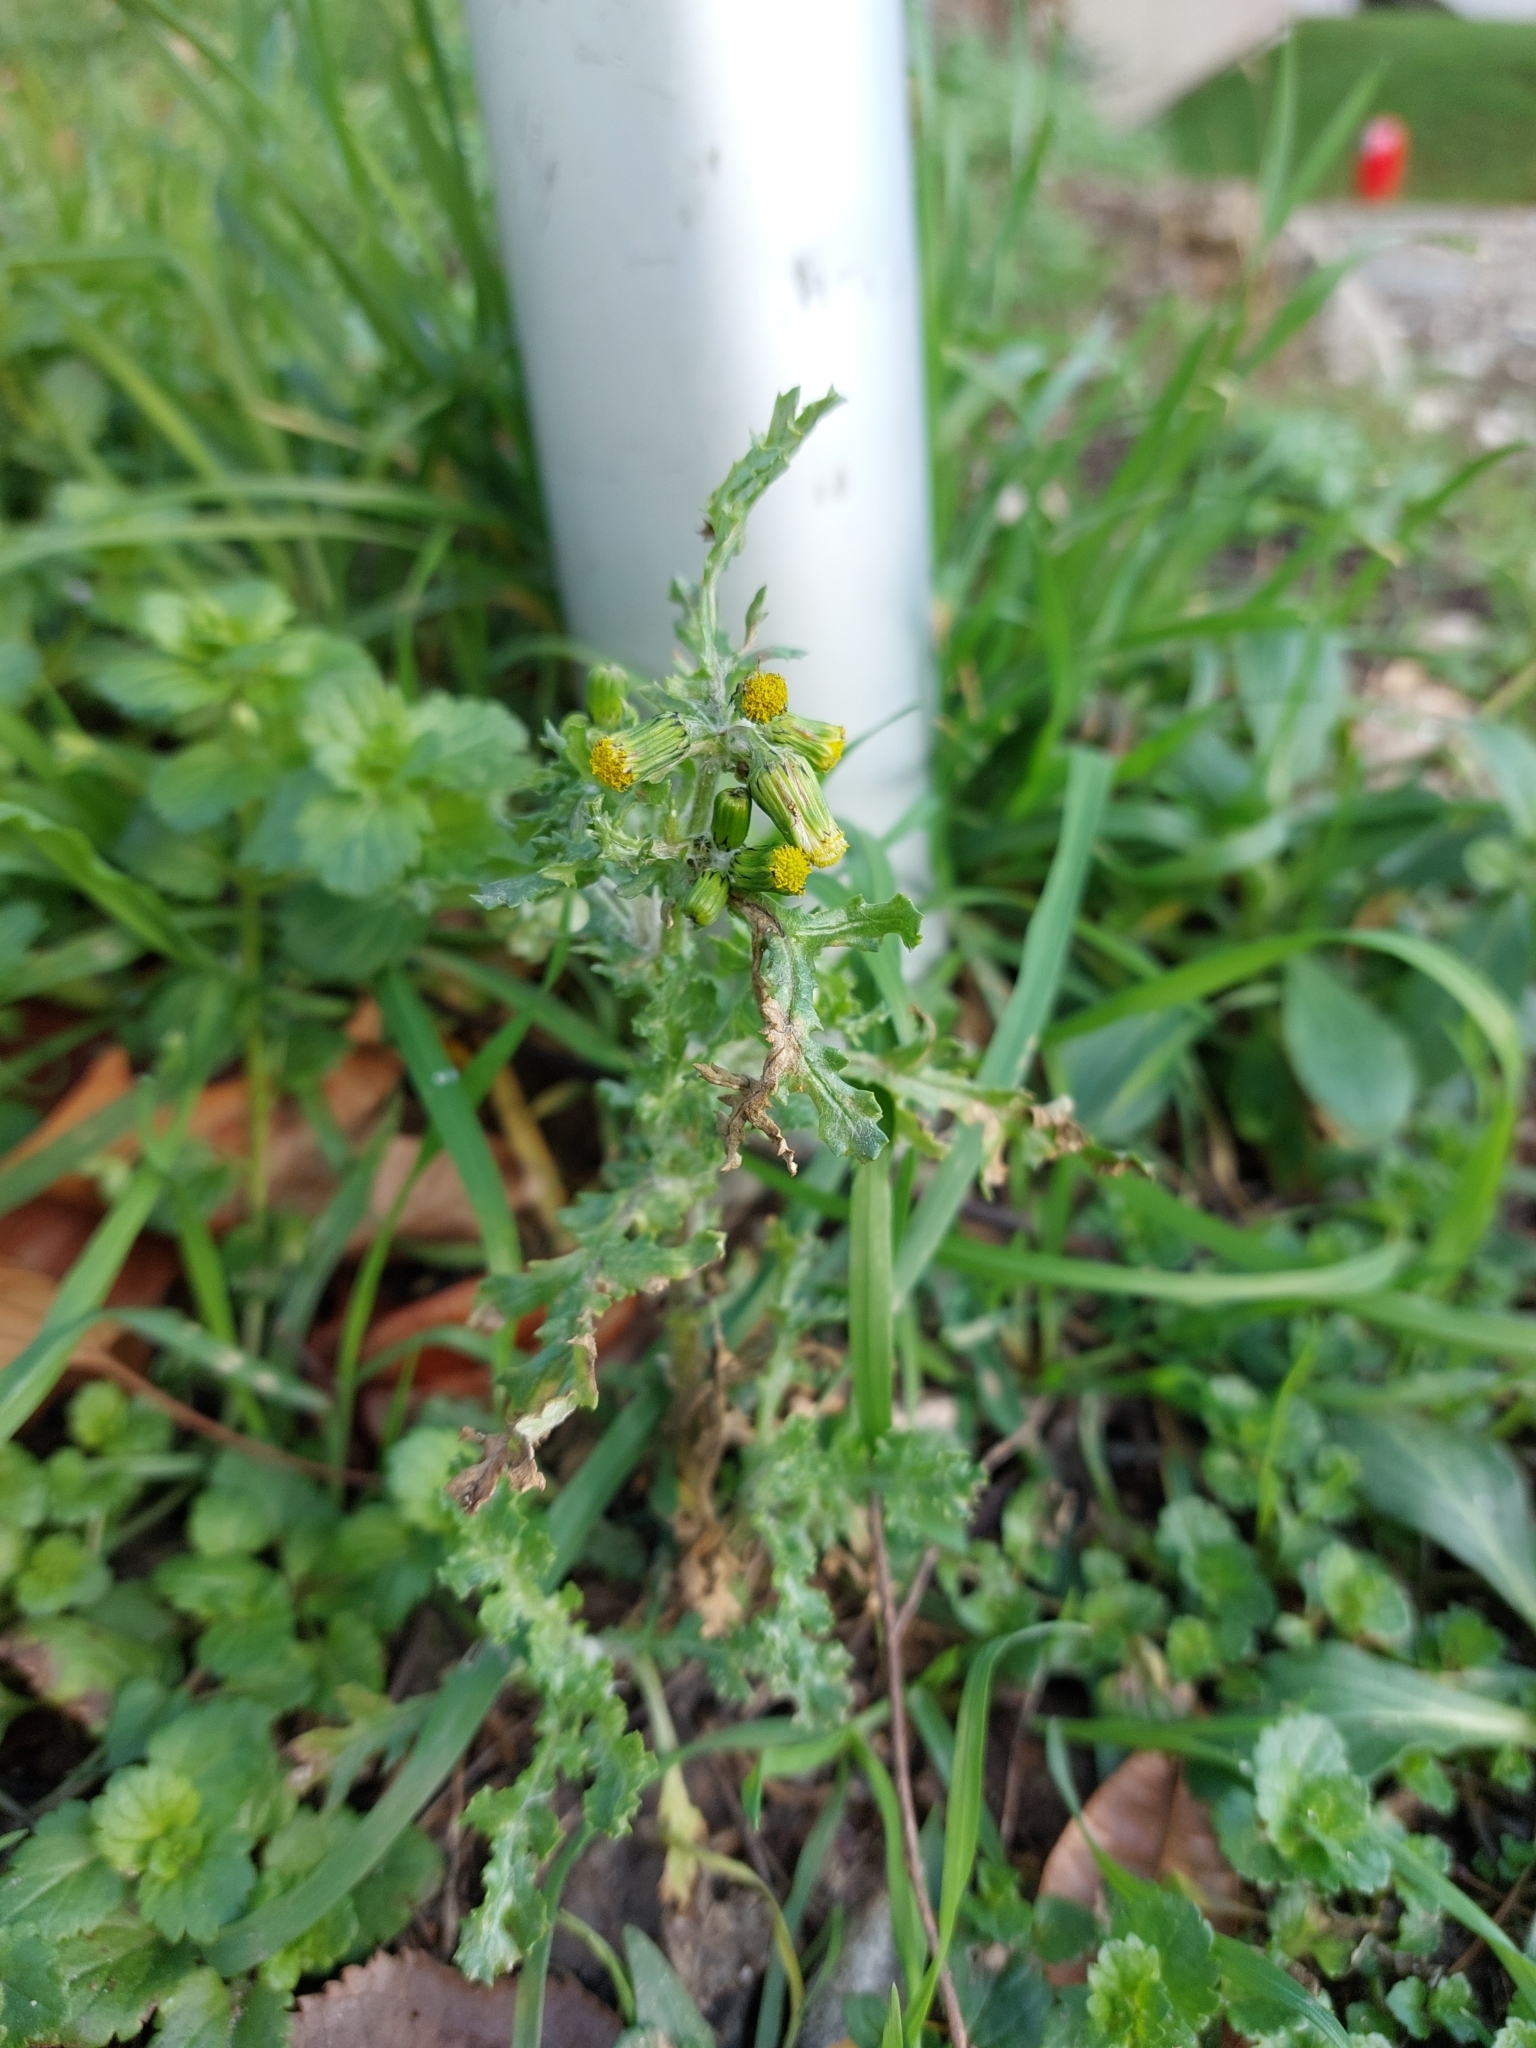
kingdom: Plantae
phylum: Tracheophyta
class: Magnoliopsida
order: Asterales
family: Asteraceae
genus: Senecio
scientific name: Senecio vulgaris
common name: Old-man-in-the-spring
